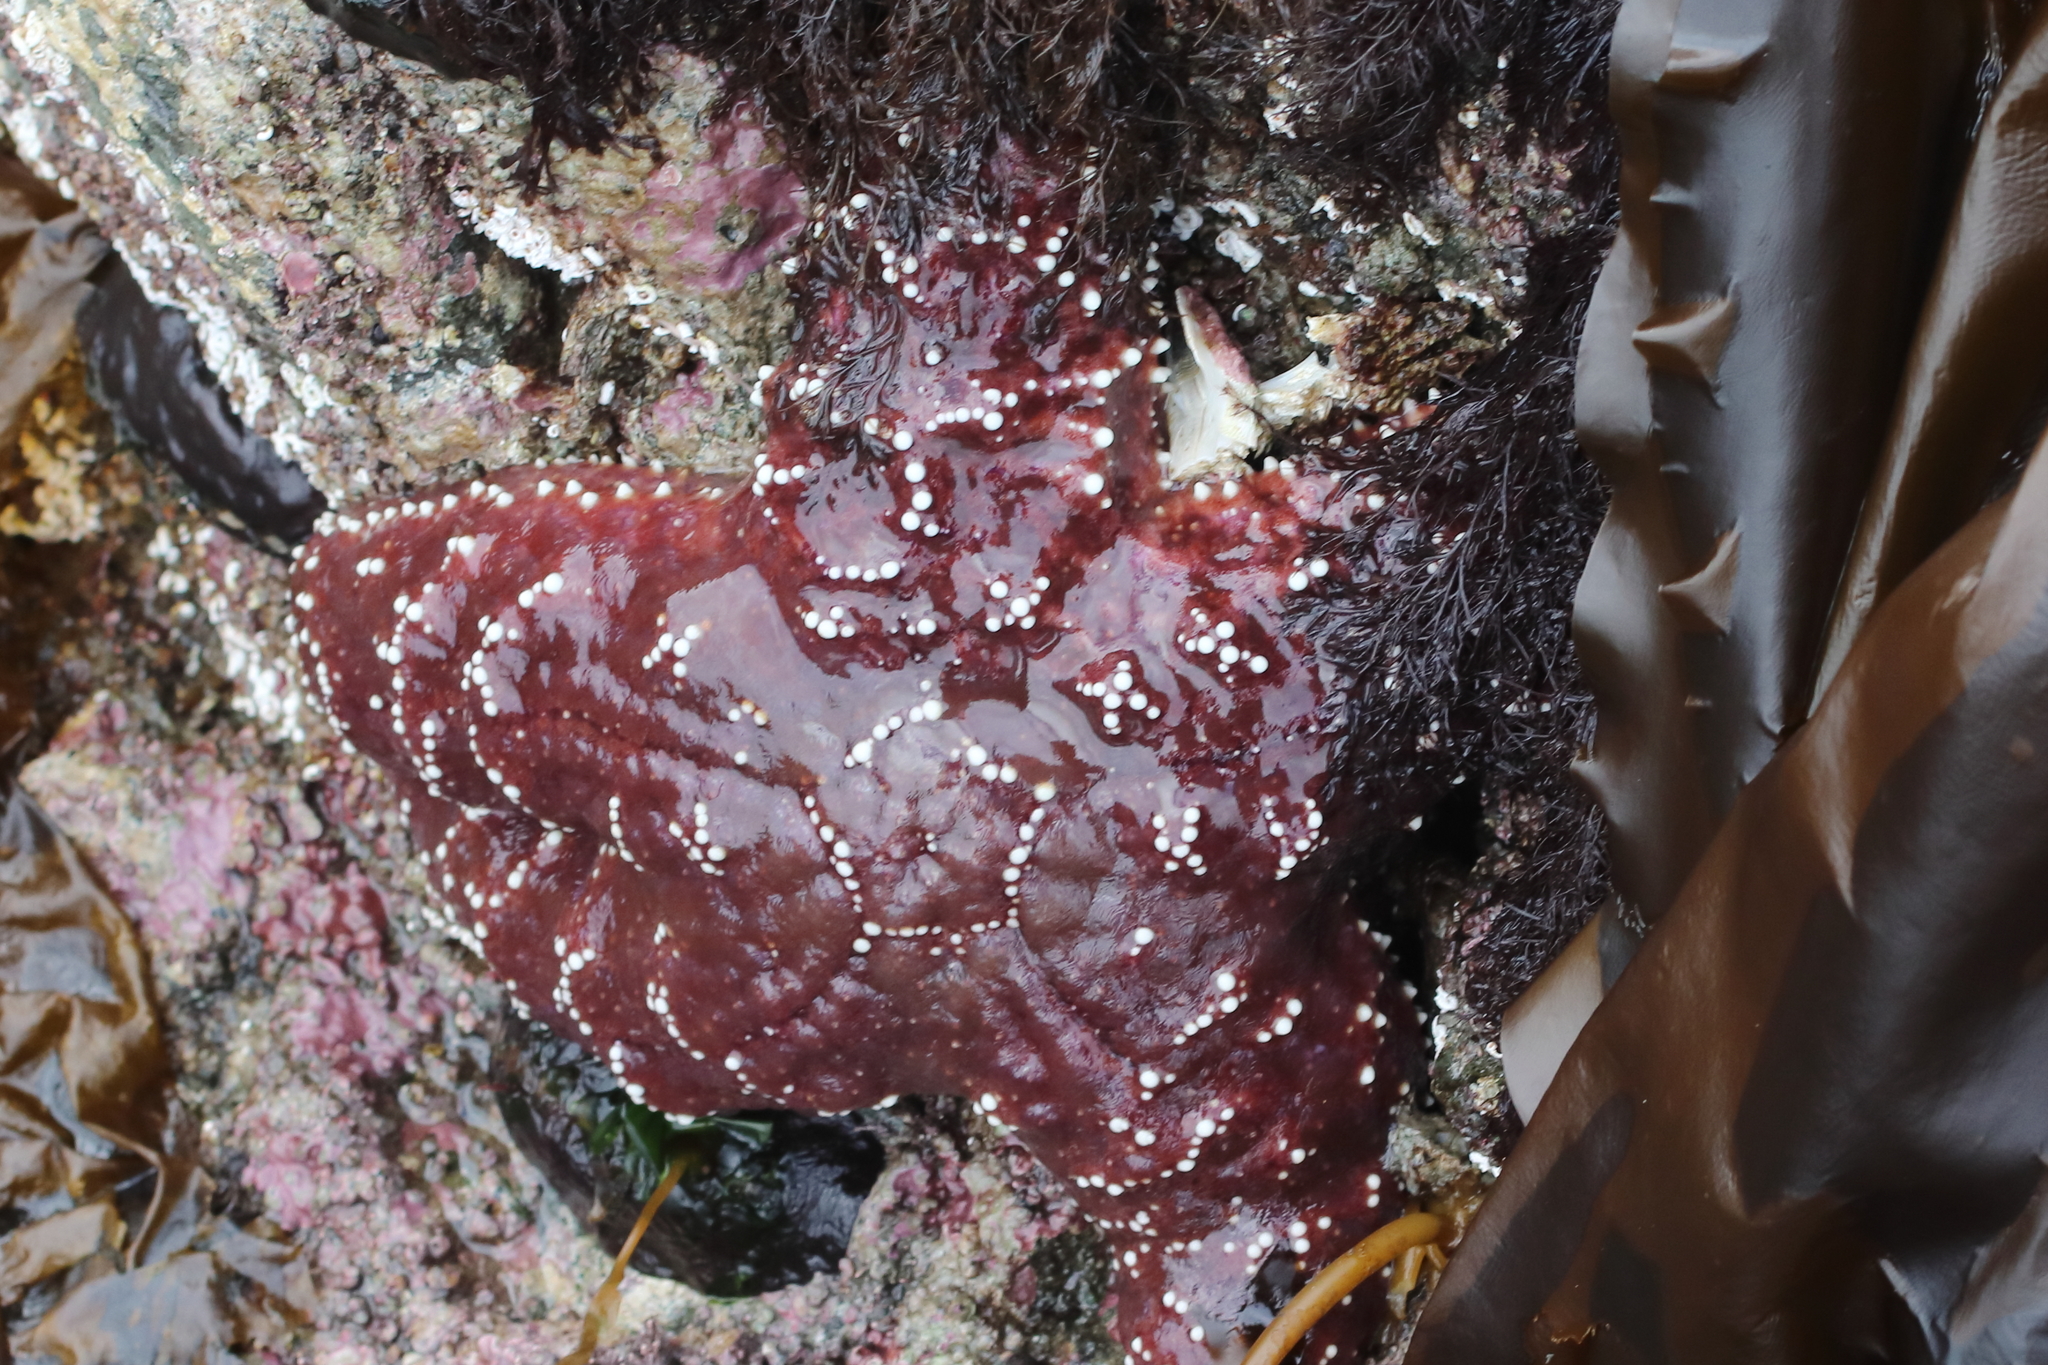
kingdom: Animalia
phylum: Echinodermata
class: Asteroidea
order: Forcipulatida
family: Asteriidae
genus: Pisaster
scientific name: Pisaster ochraceus
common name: Ochre stars
